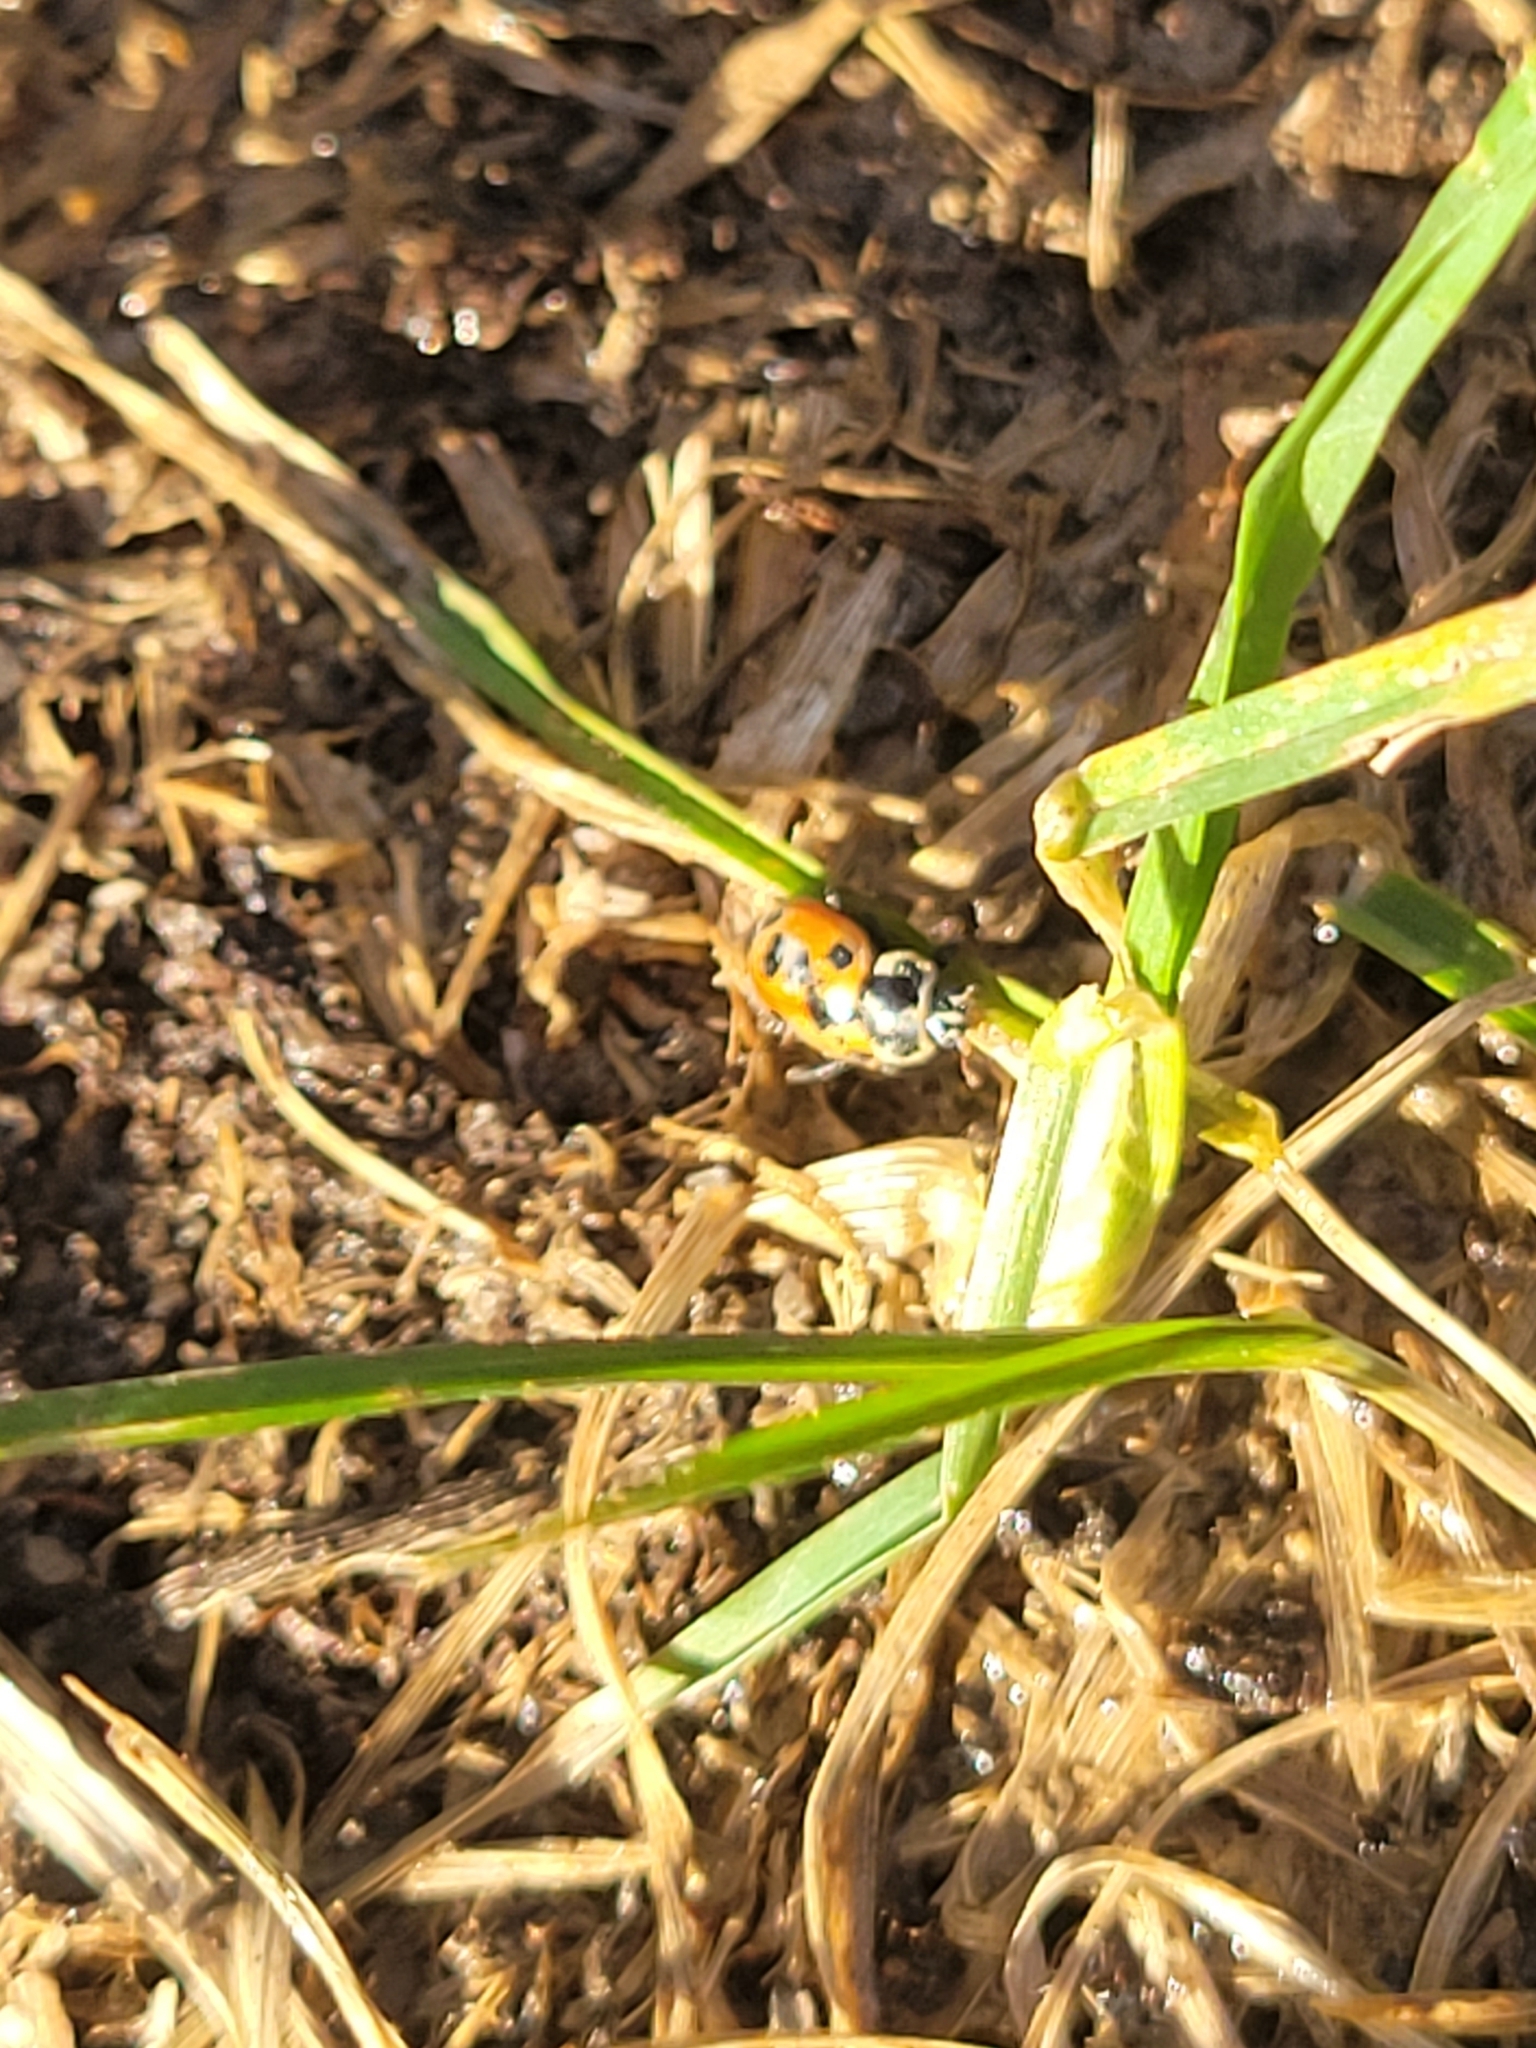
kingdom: Animalia
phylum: Arthropoda
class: Insecta
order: Coleoptera
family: Coccinellidae
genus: Hippodamia
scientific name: Hippodamia parenthesis
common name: Parenthesis lady beetle
